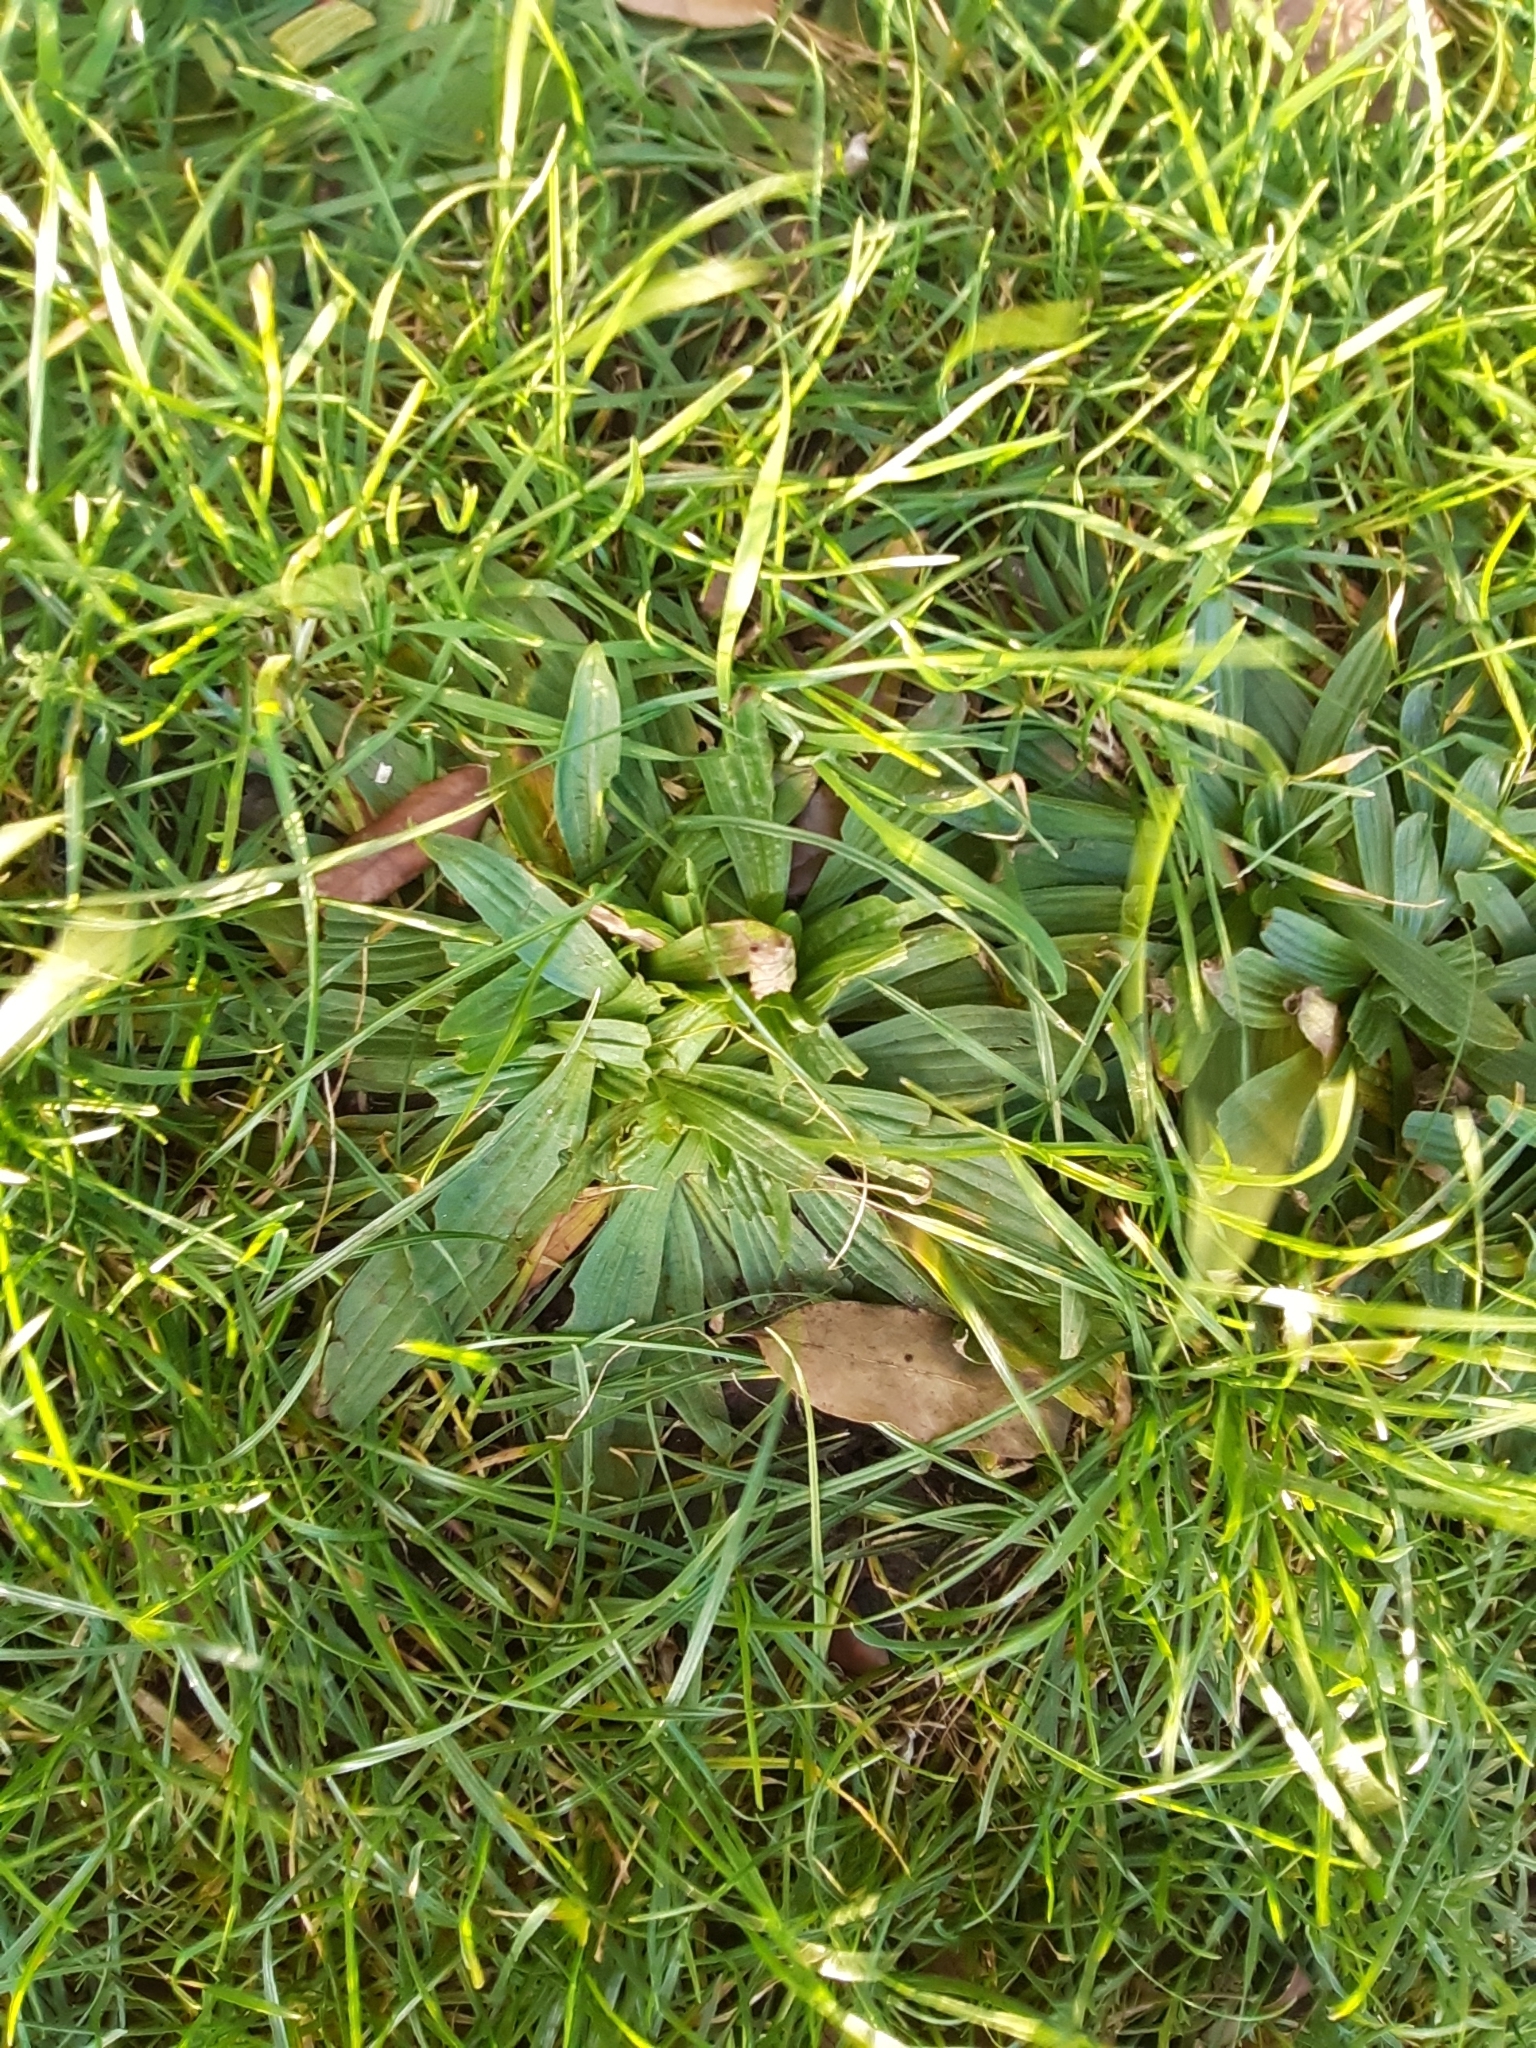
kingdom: Plantae
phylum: Tracheophyta
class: Magnoliopsida
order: Lamiales
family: Plantaginaceae
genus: Plantago
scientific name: Plantago lanceolata
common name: Ribwort plantain
